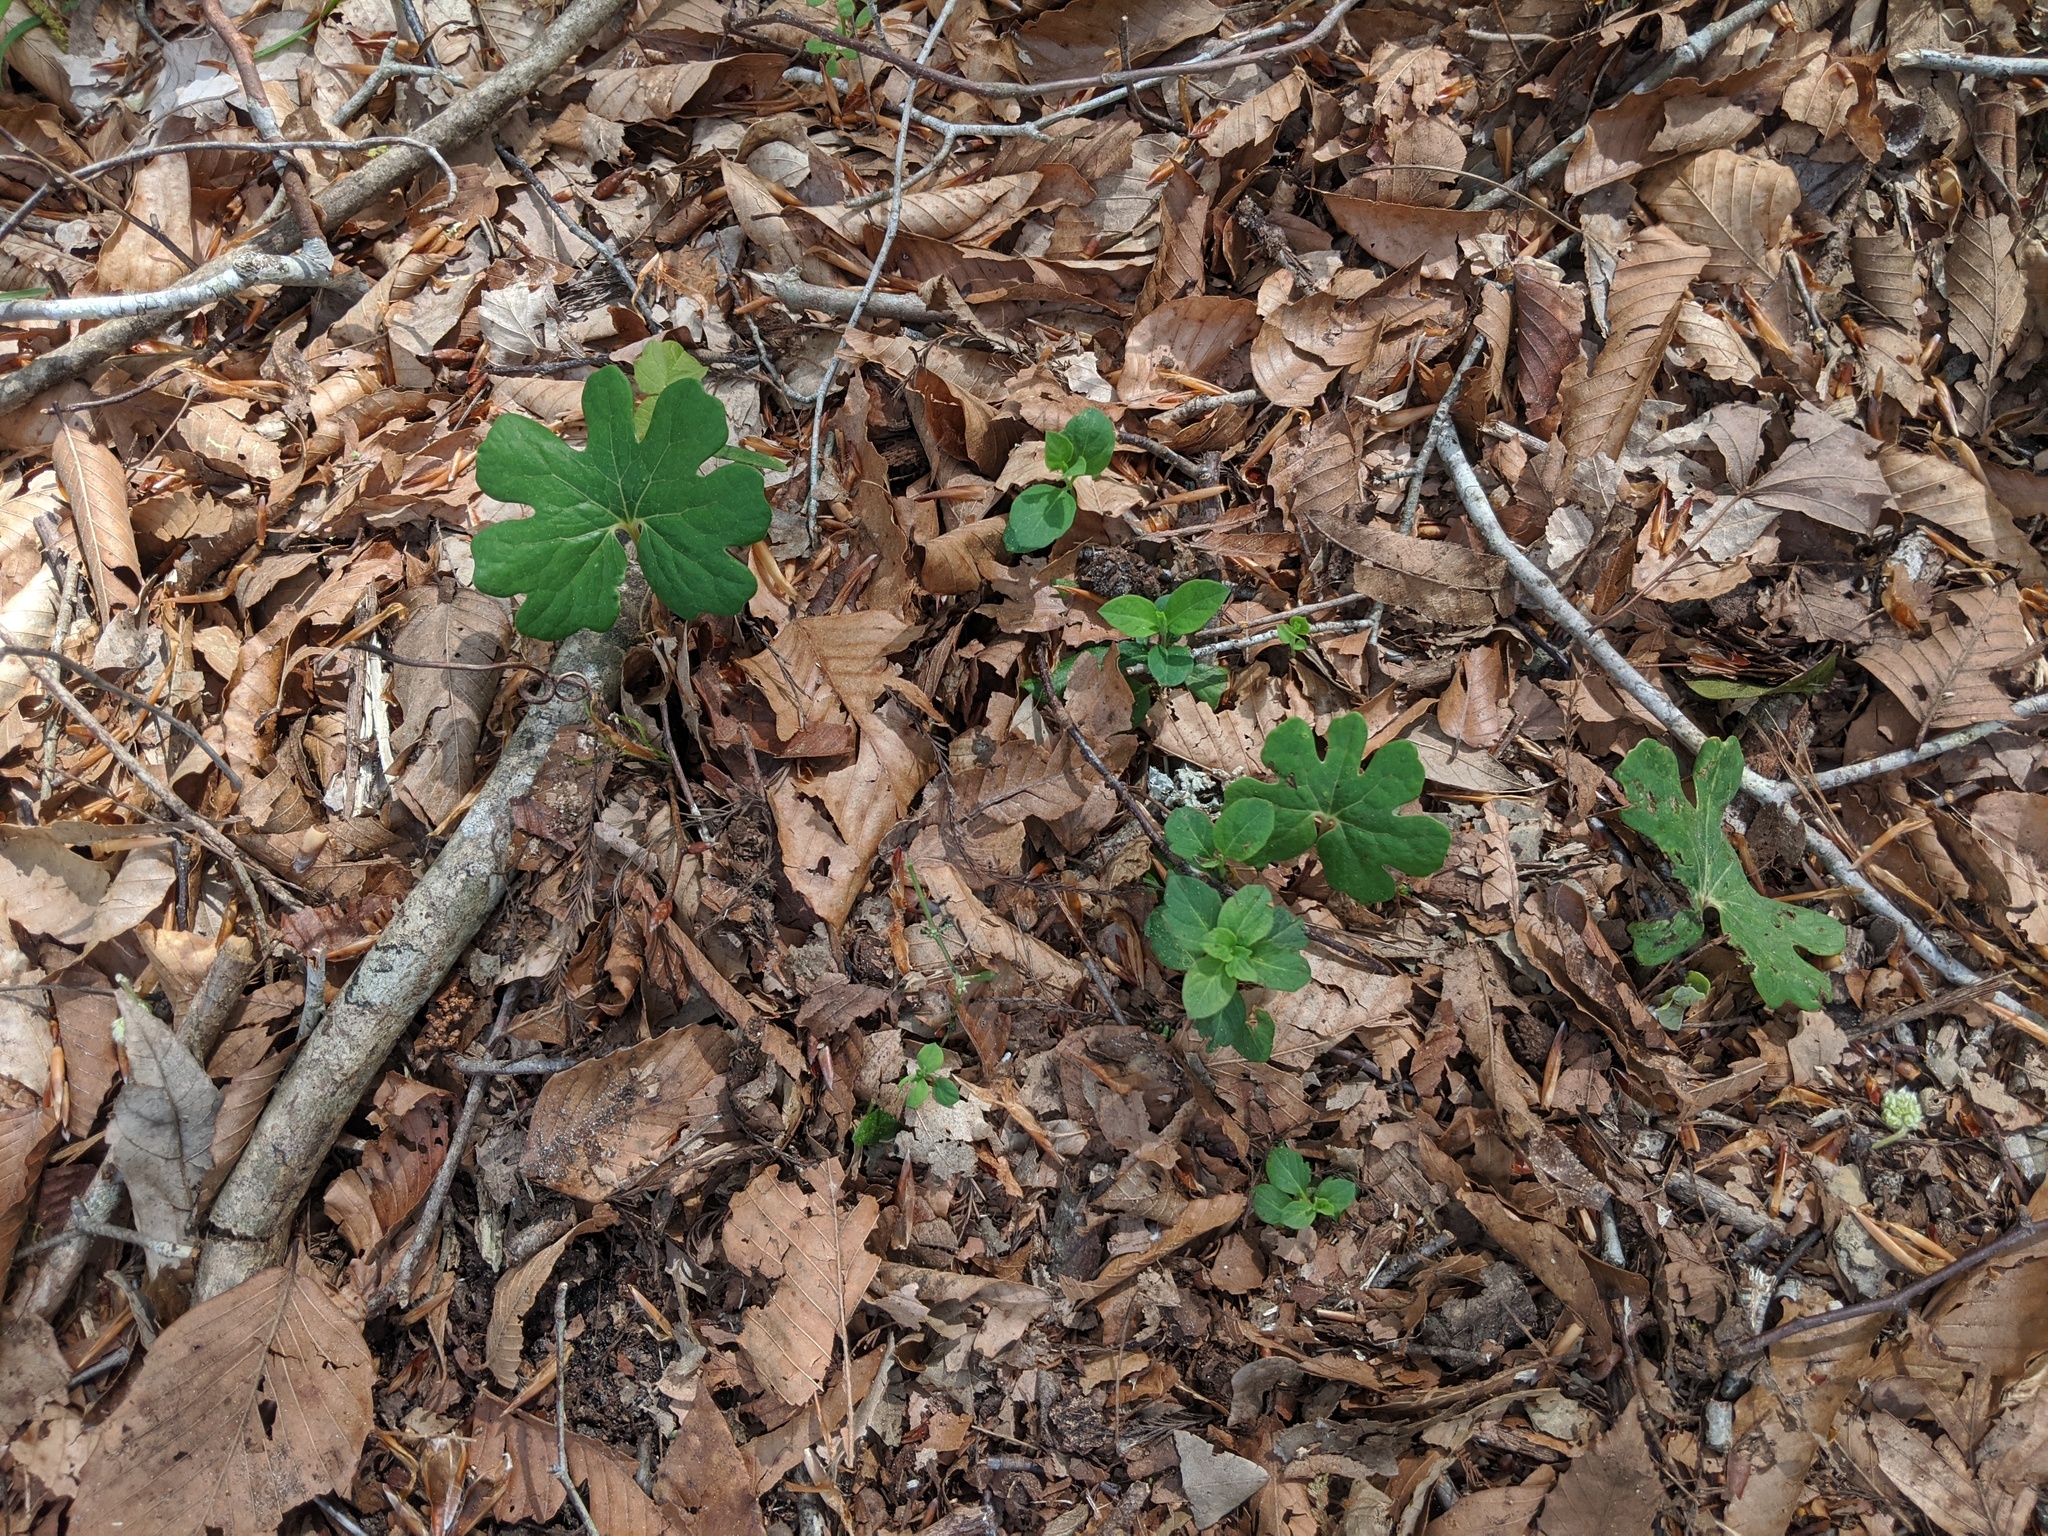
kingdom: Plantae
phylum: Tracheophyta
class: Magnoliopsida
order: Ranunculales
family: Papaveraceae
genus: Sanguinaria
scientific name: Sanguinaria canadensis
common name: Bloodroot
